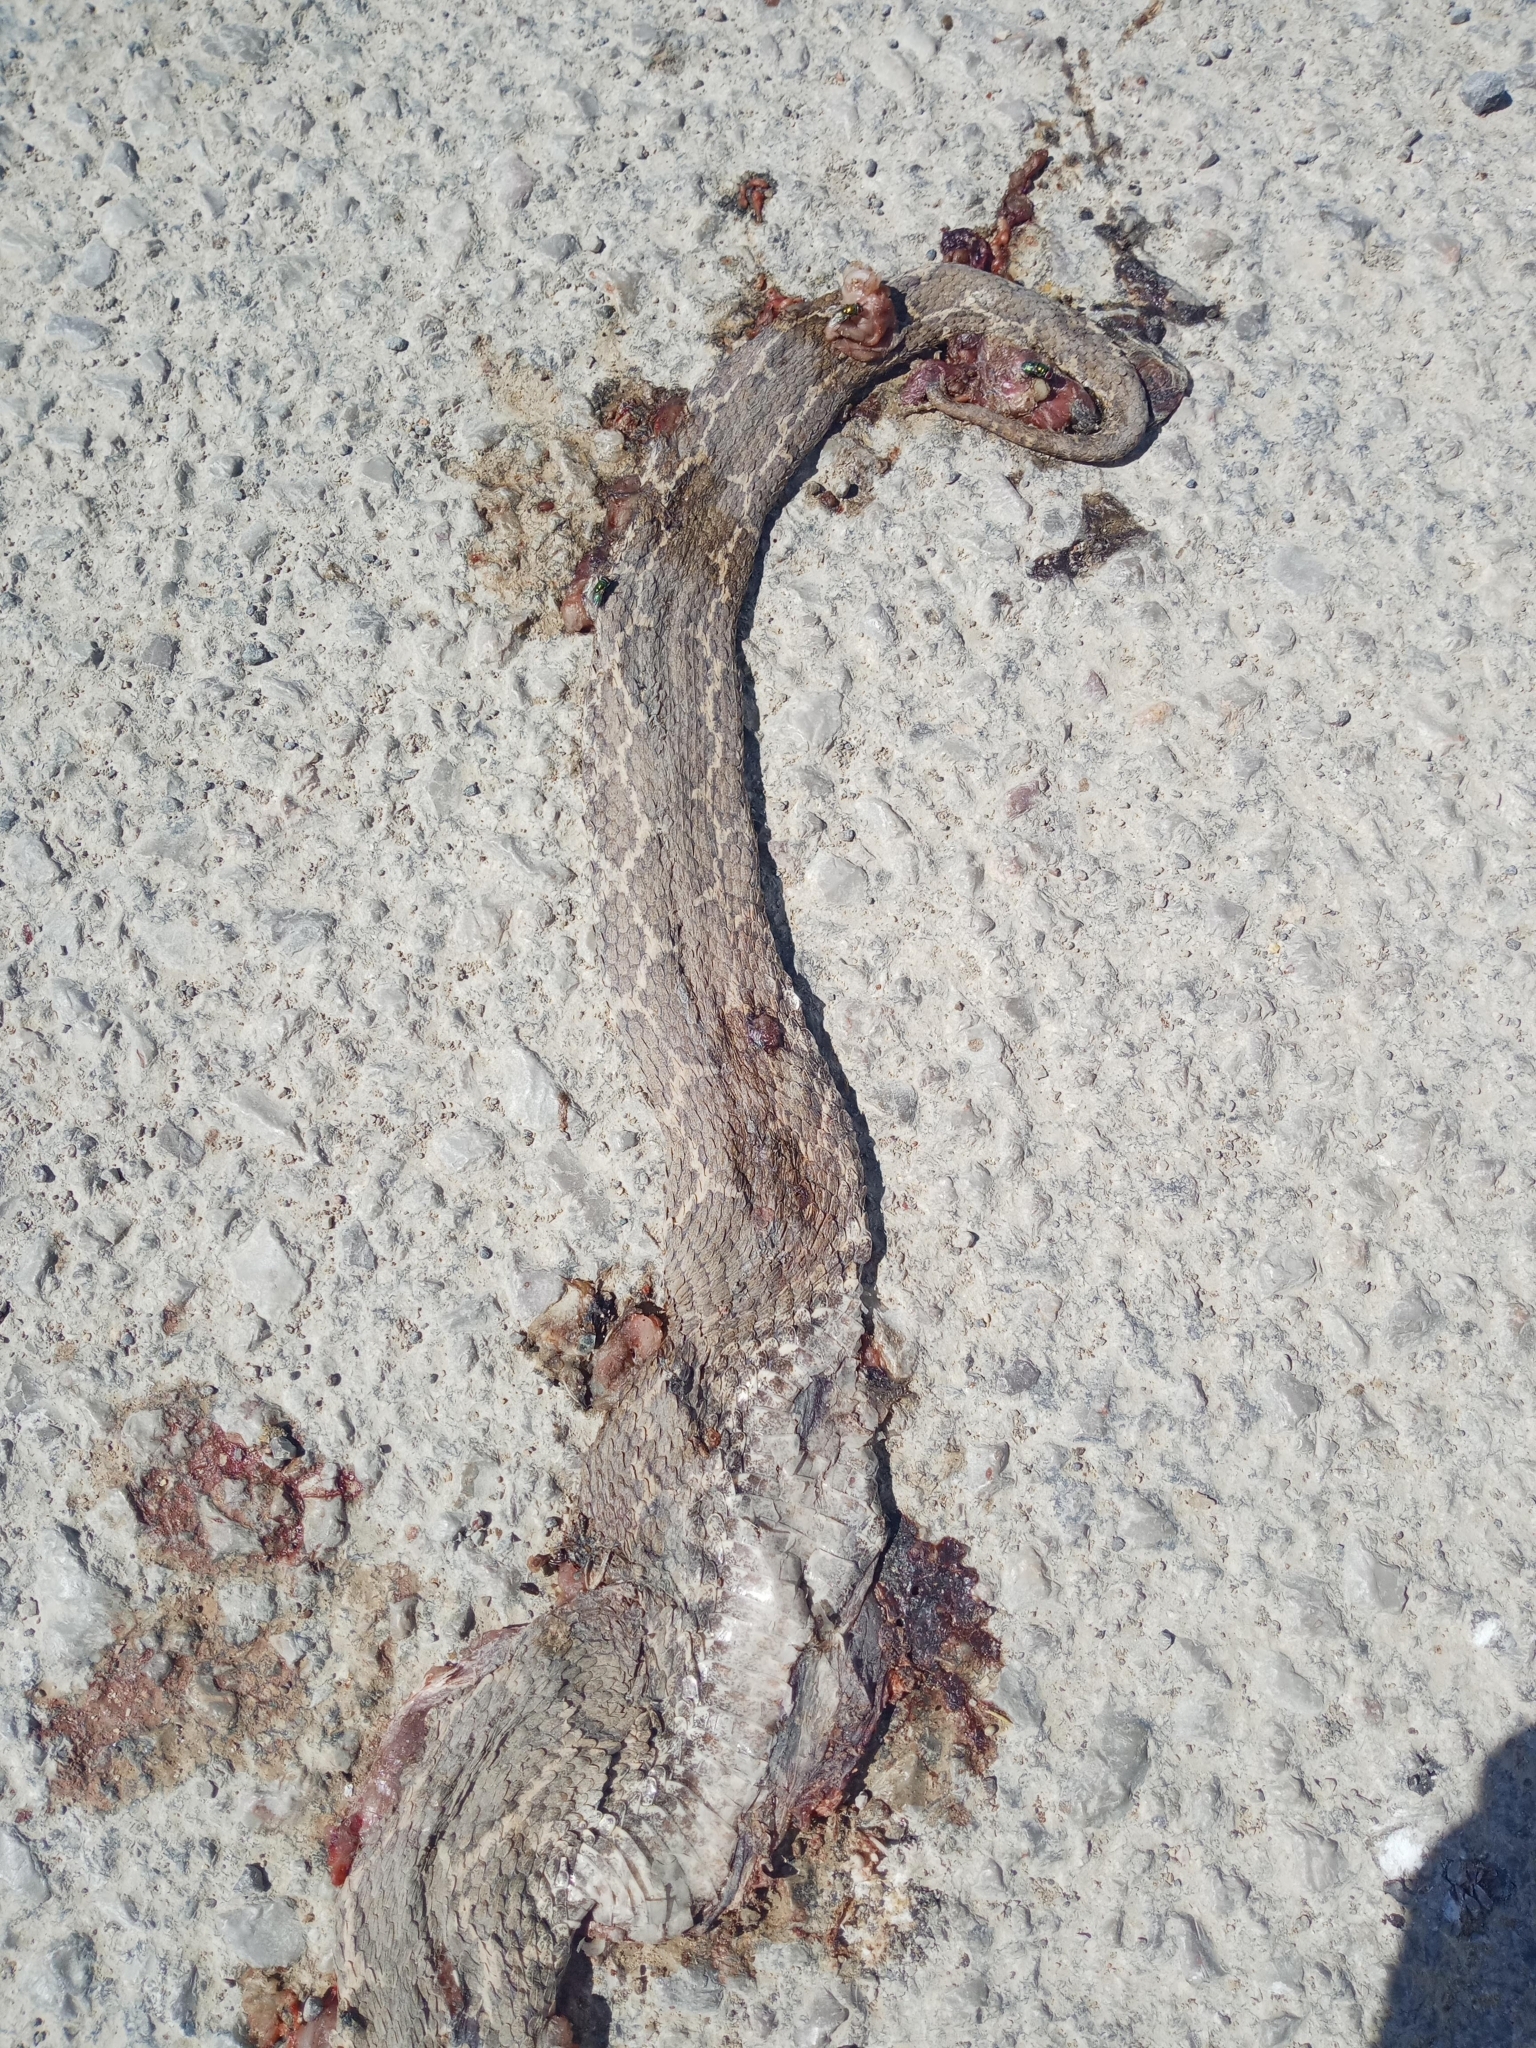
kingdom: Animalia
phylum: Chordata
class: Squamata
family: Viperidae
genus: Daboia
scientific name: Daboia mauritanica
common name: Moorish viper
